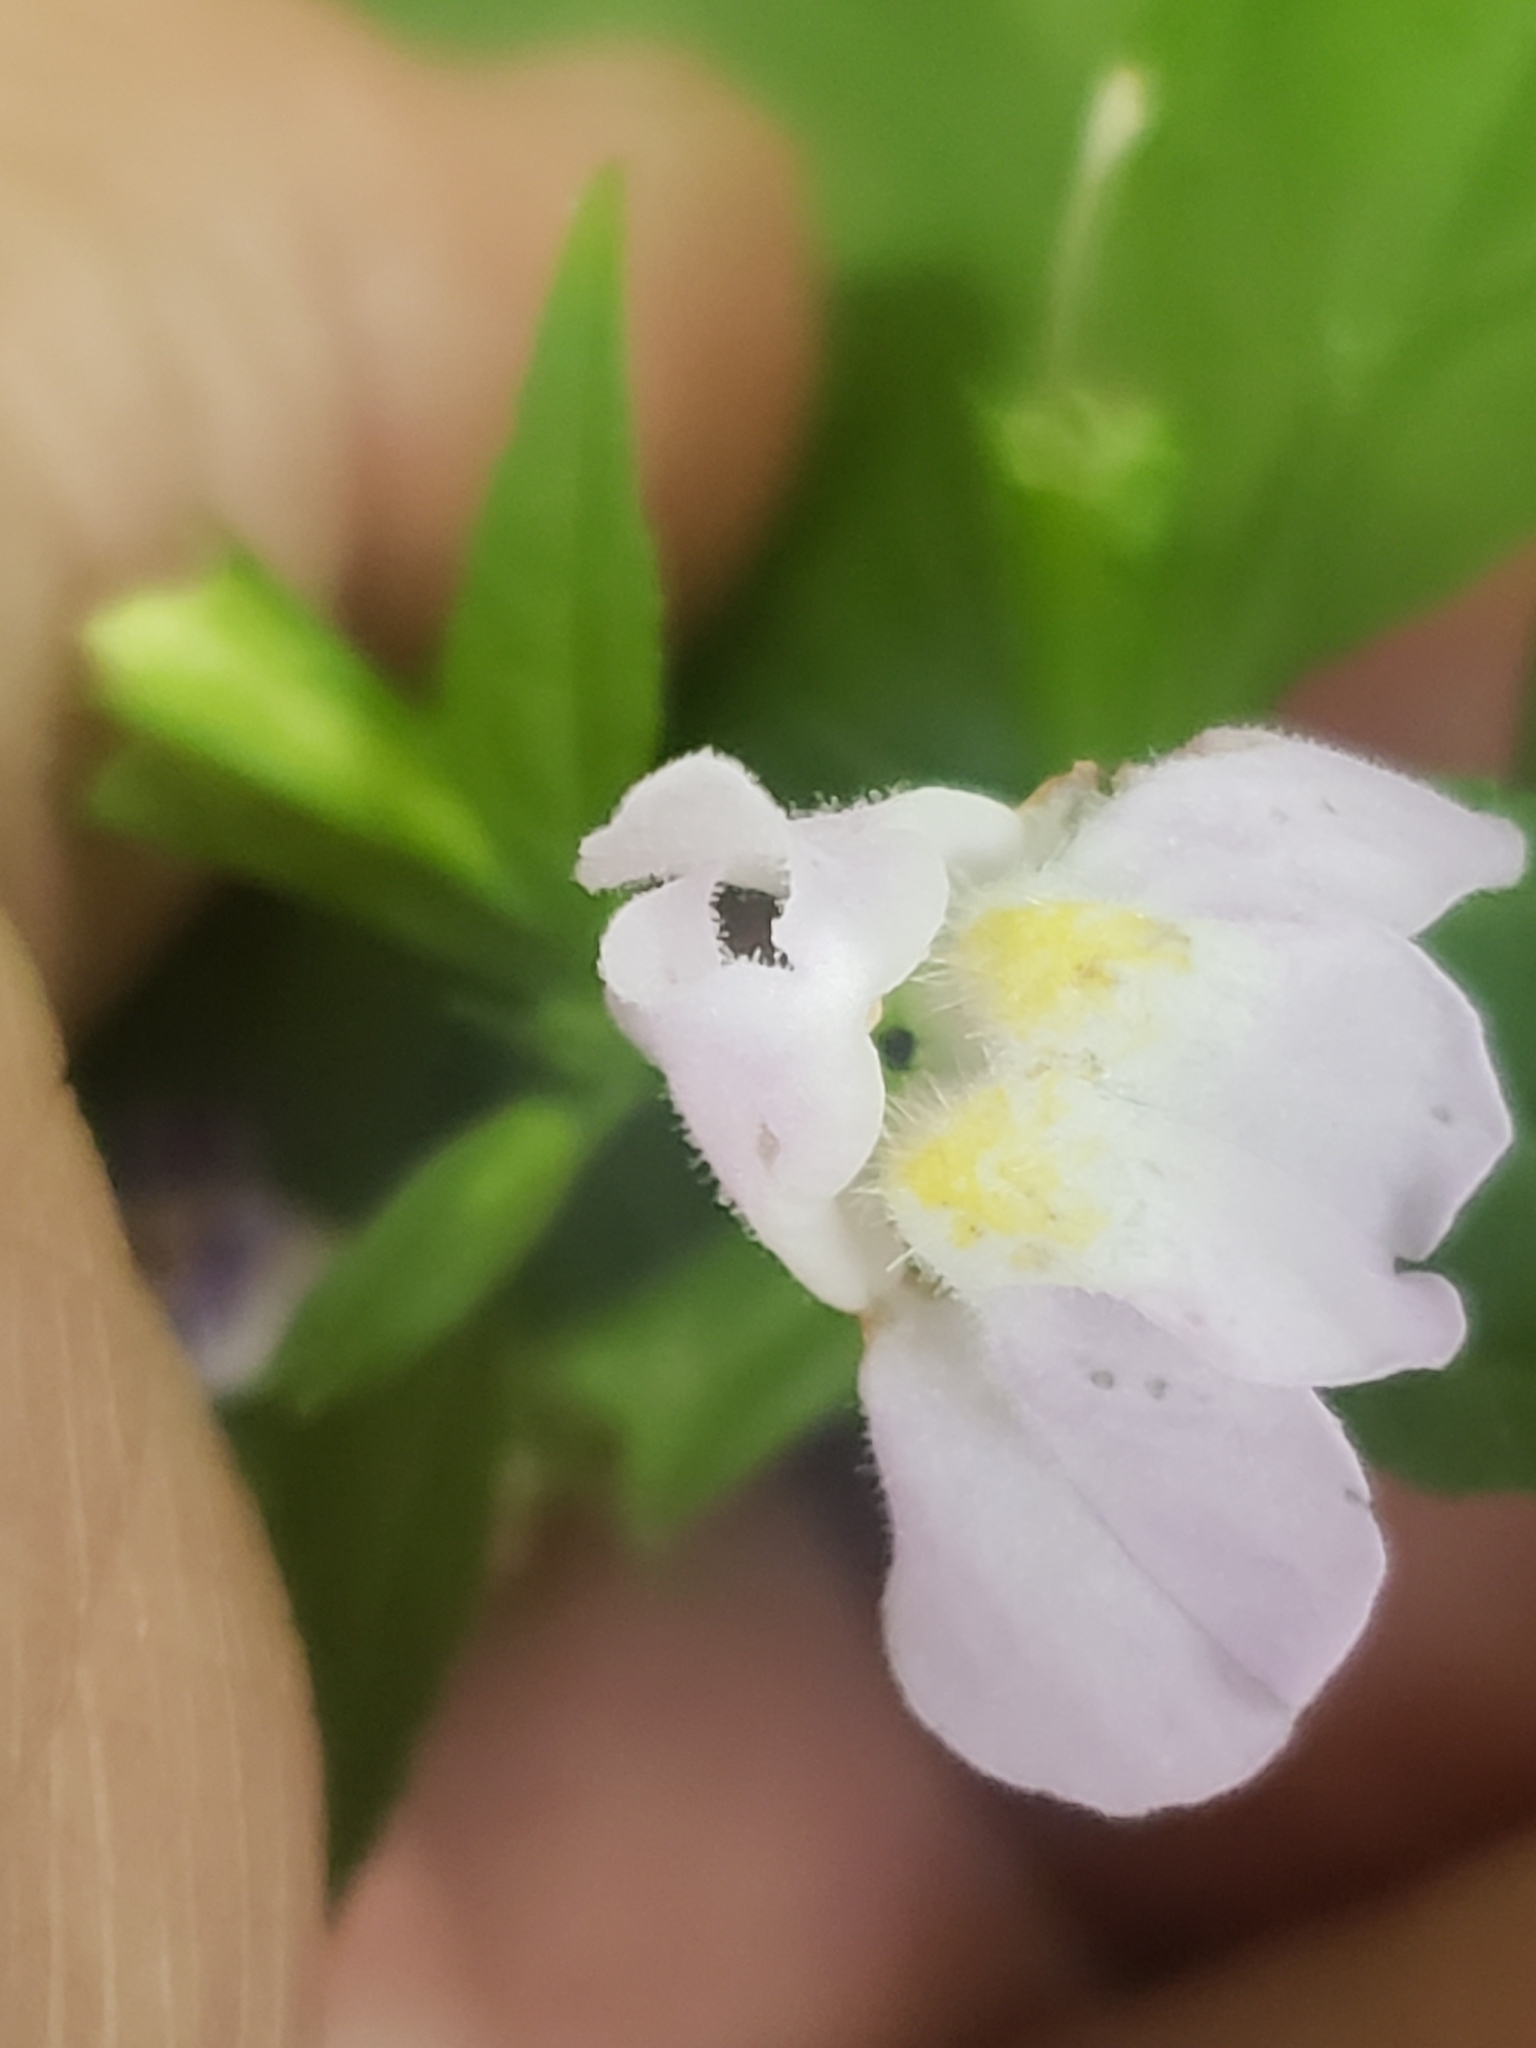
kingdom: Plantae
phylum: Tracheophyta
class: Magnoliopsida
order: Lamiales
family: Phrymaceae
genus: Mimulus
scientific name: Mimulus alatus
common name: Sharp-wing monkey-flower
